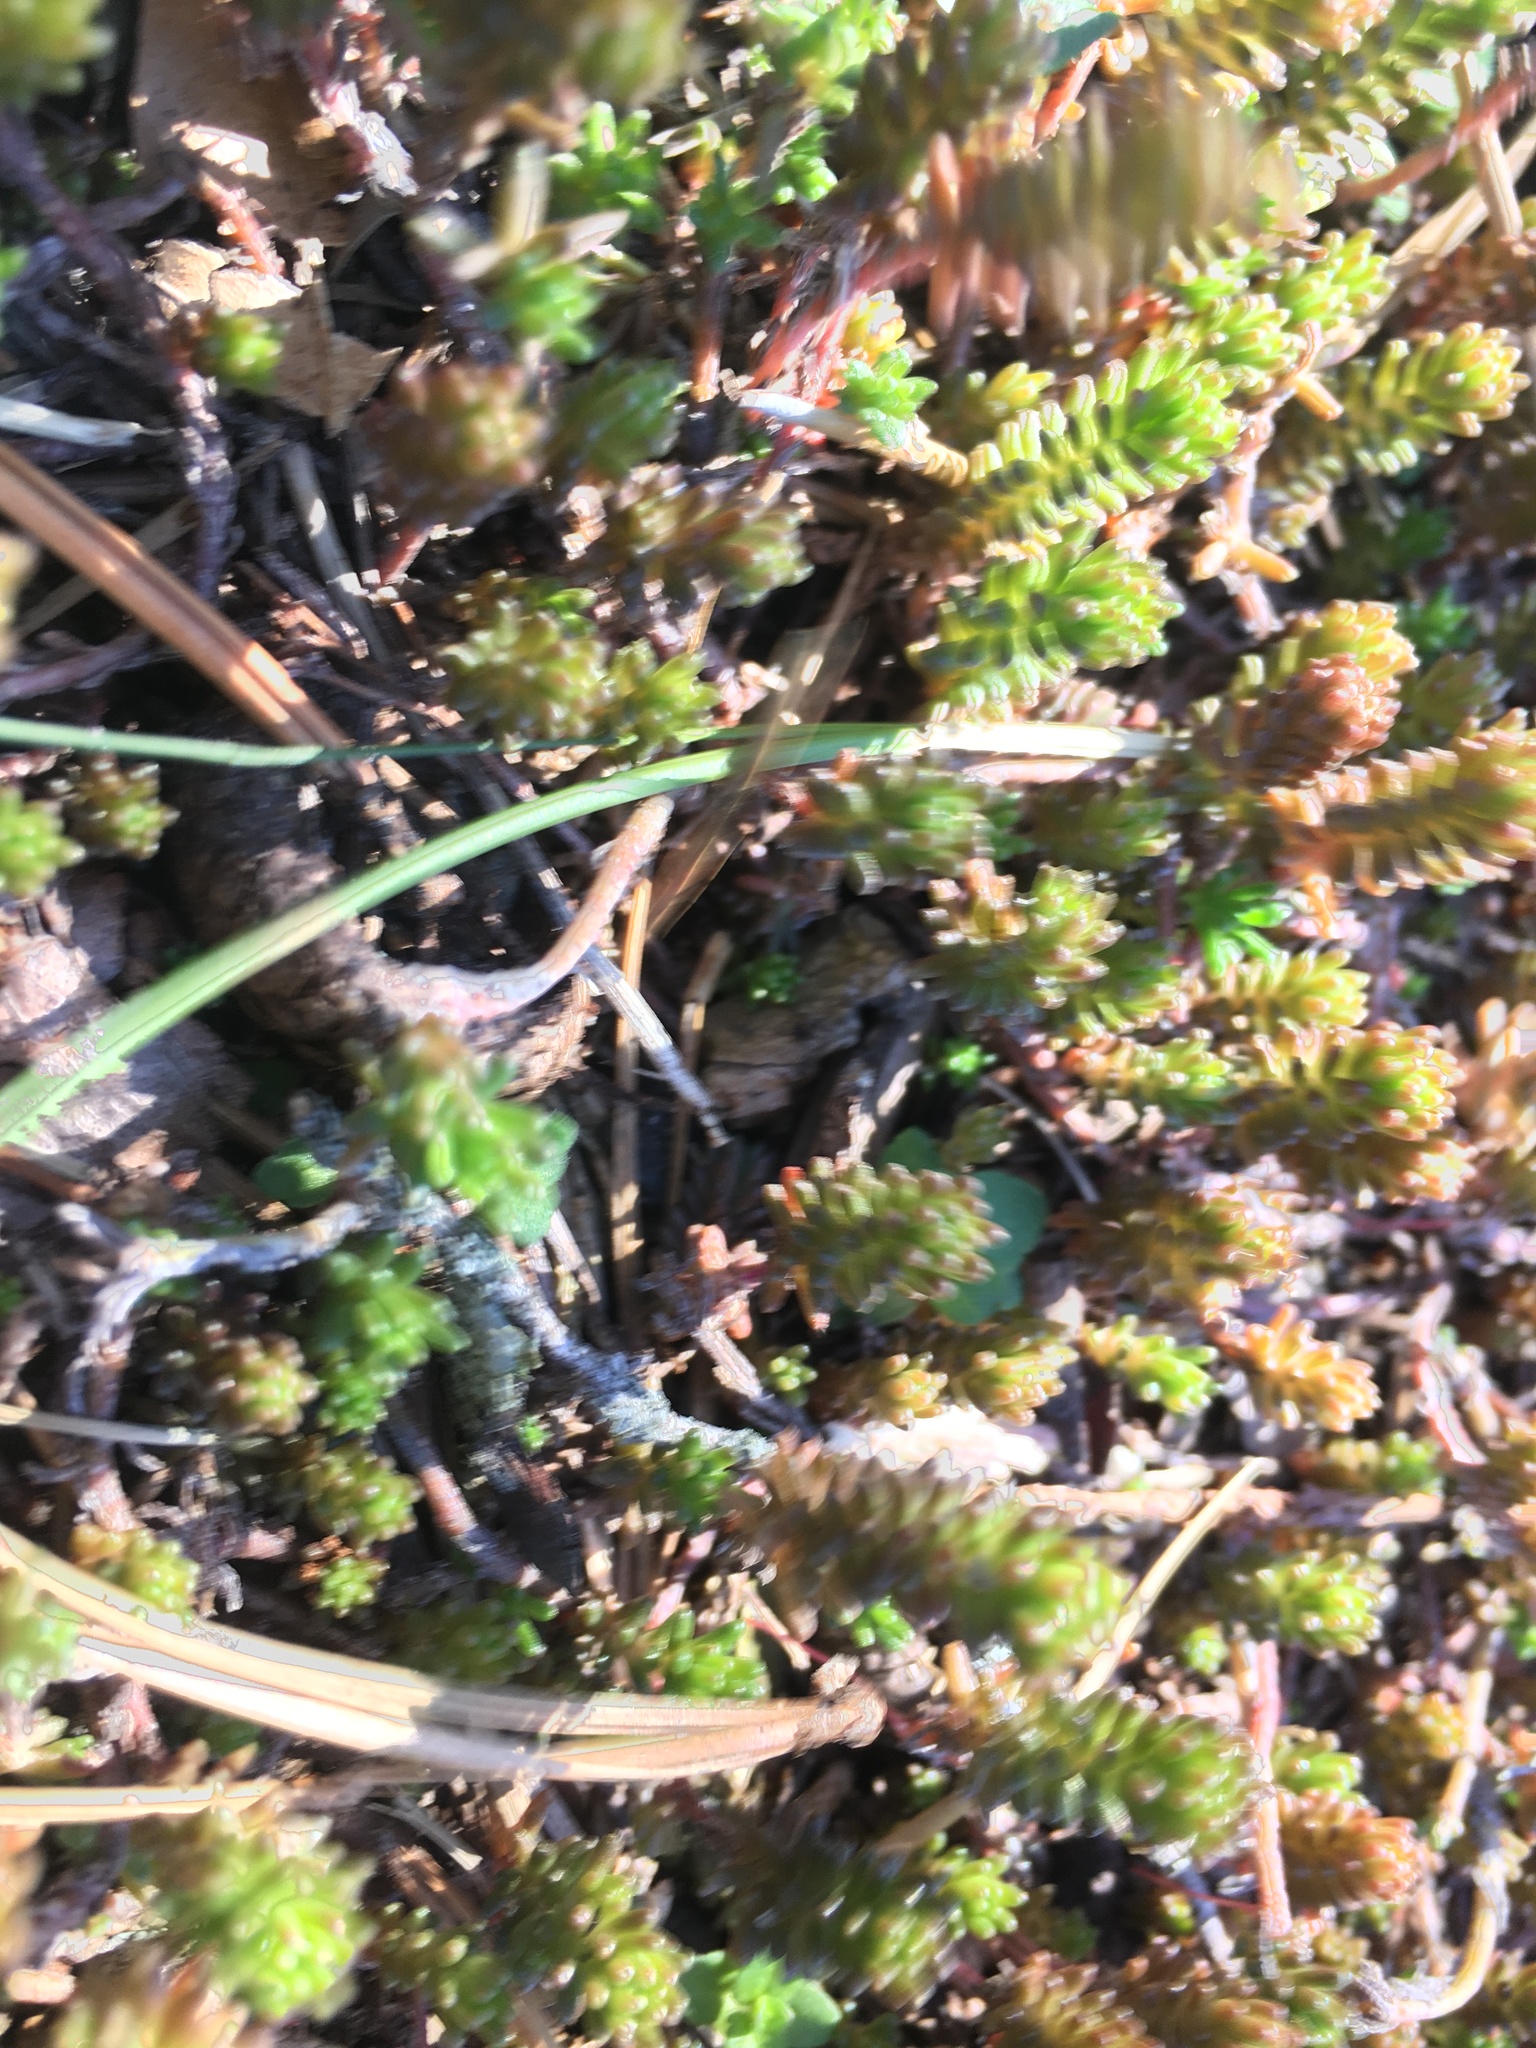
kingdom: Plantae
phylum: Tracheophyta
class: Magnoliopsida
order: Saxifragales
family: Crassulaceae
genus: Sedum
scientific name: Sedum acre
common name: Biting stonecrop
